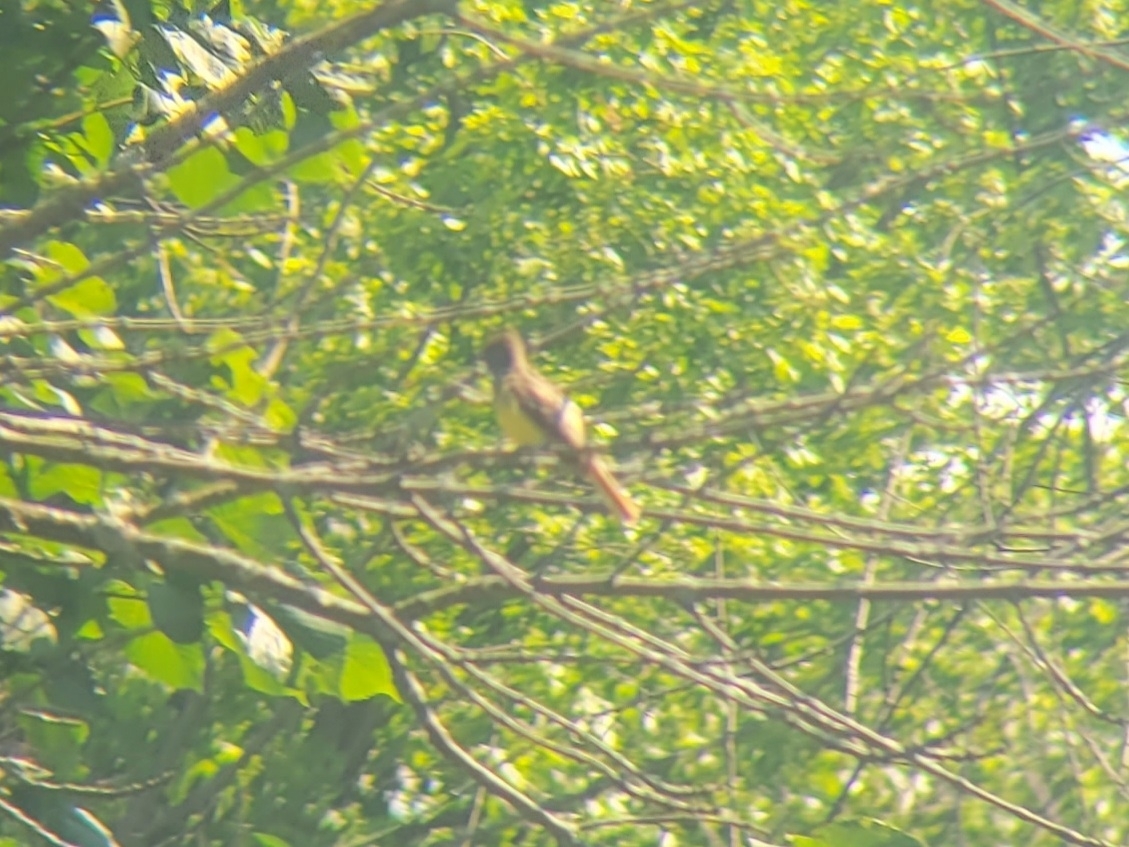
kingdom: Animalia
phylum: Chordata
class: Aves
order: Passeriformes
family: Tyrannidae
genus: Myiarchus
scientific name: Myiarchus crinitus
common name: Great crested flycatcher
